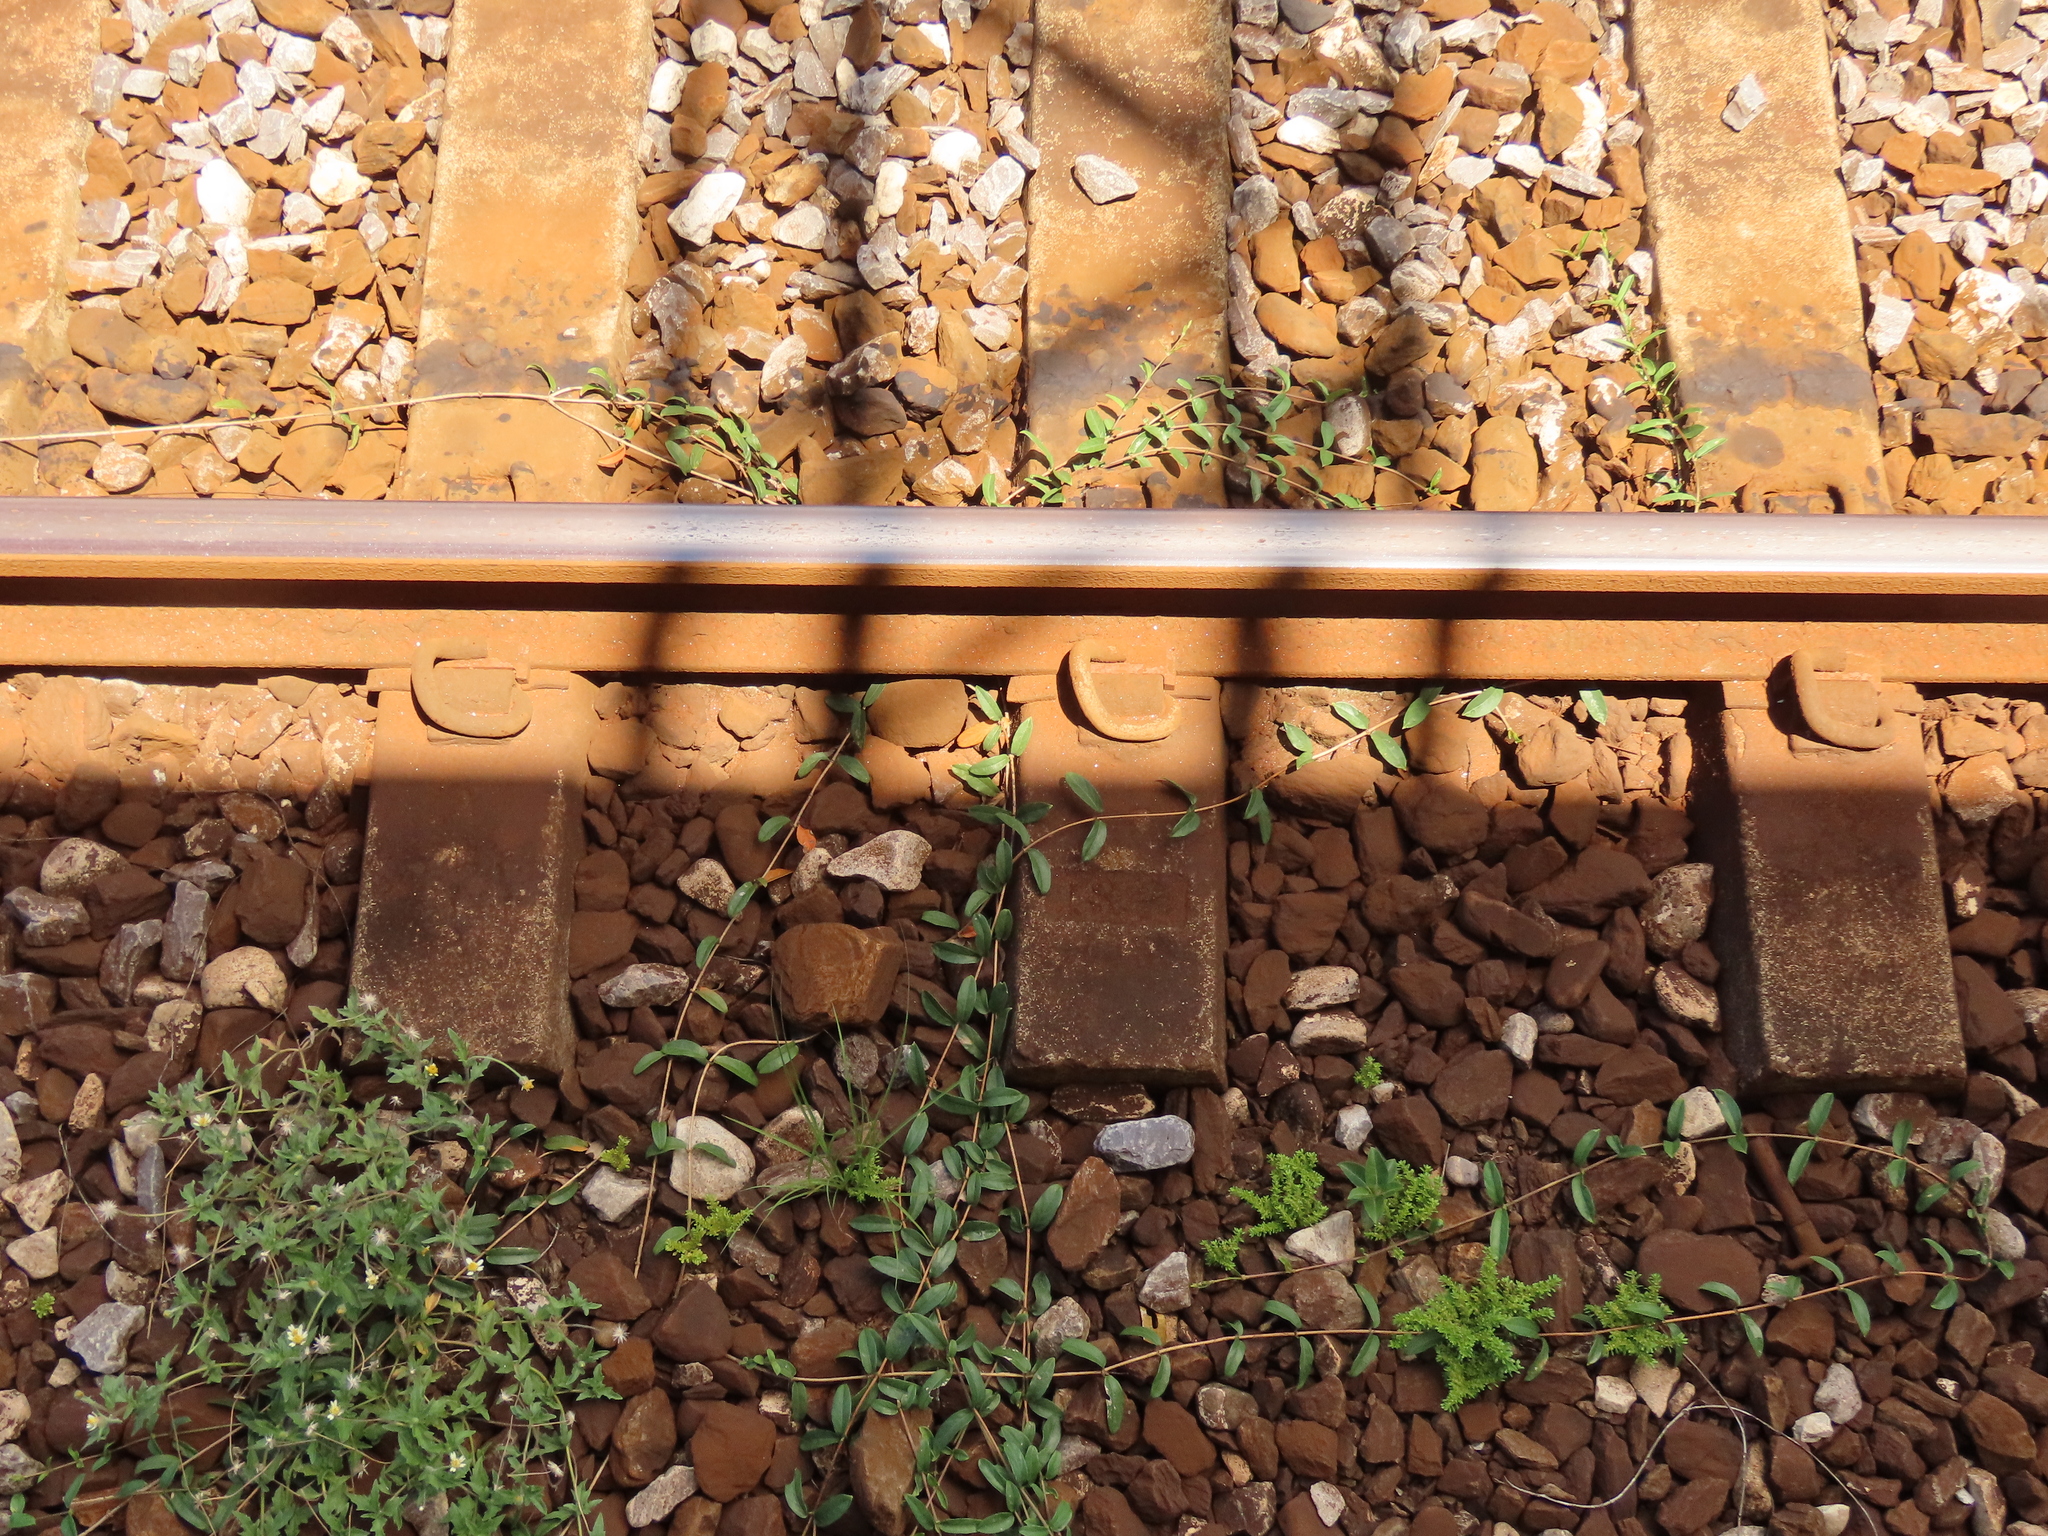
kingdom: Plantae
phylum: Tracheophyta
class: Magnoliopsida
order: Gentianales
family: Rubiaceae
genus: Paederia
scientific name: Paederia foetida
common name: Stinkvine
